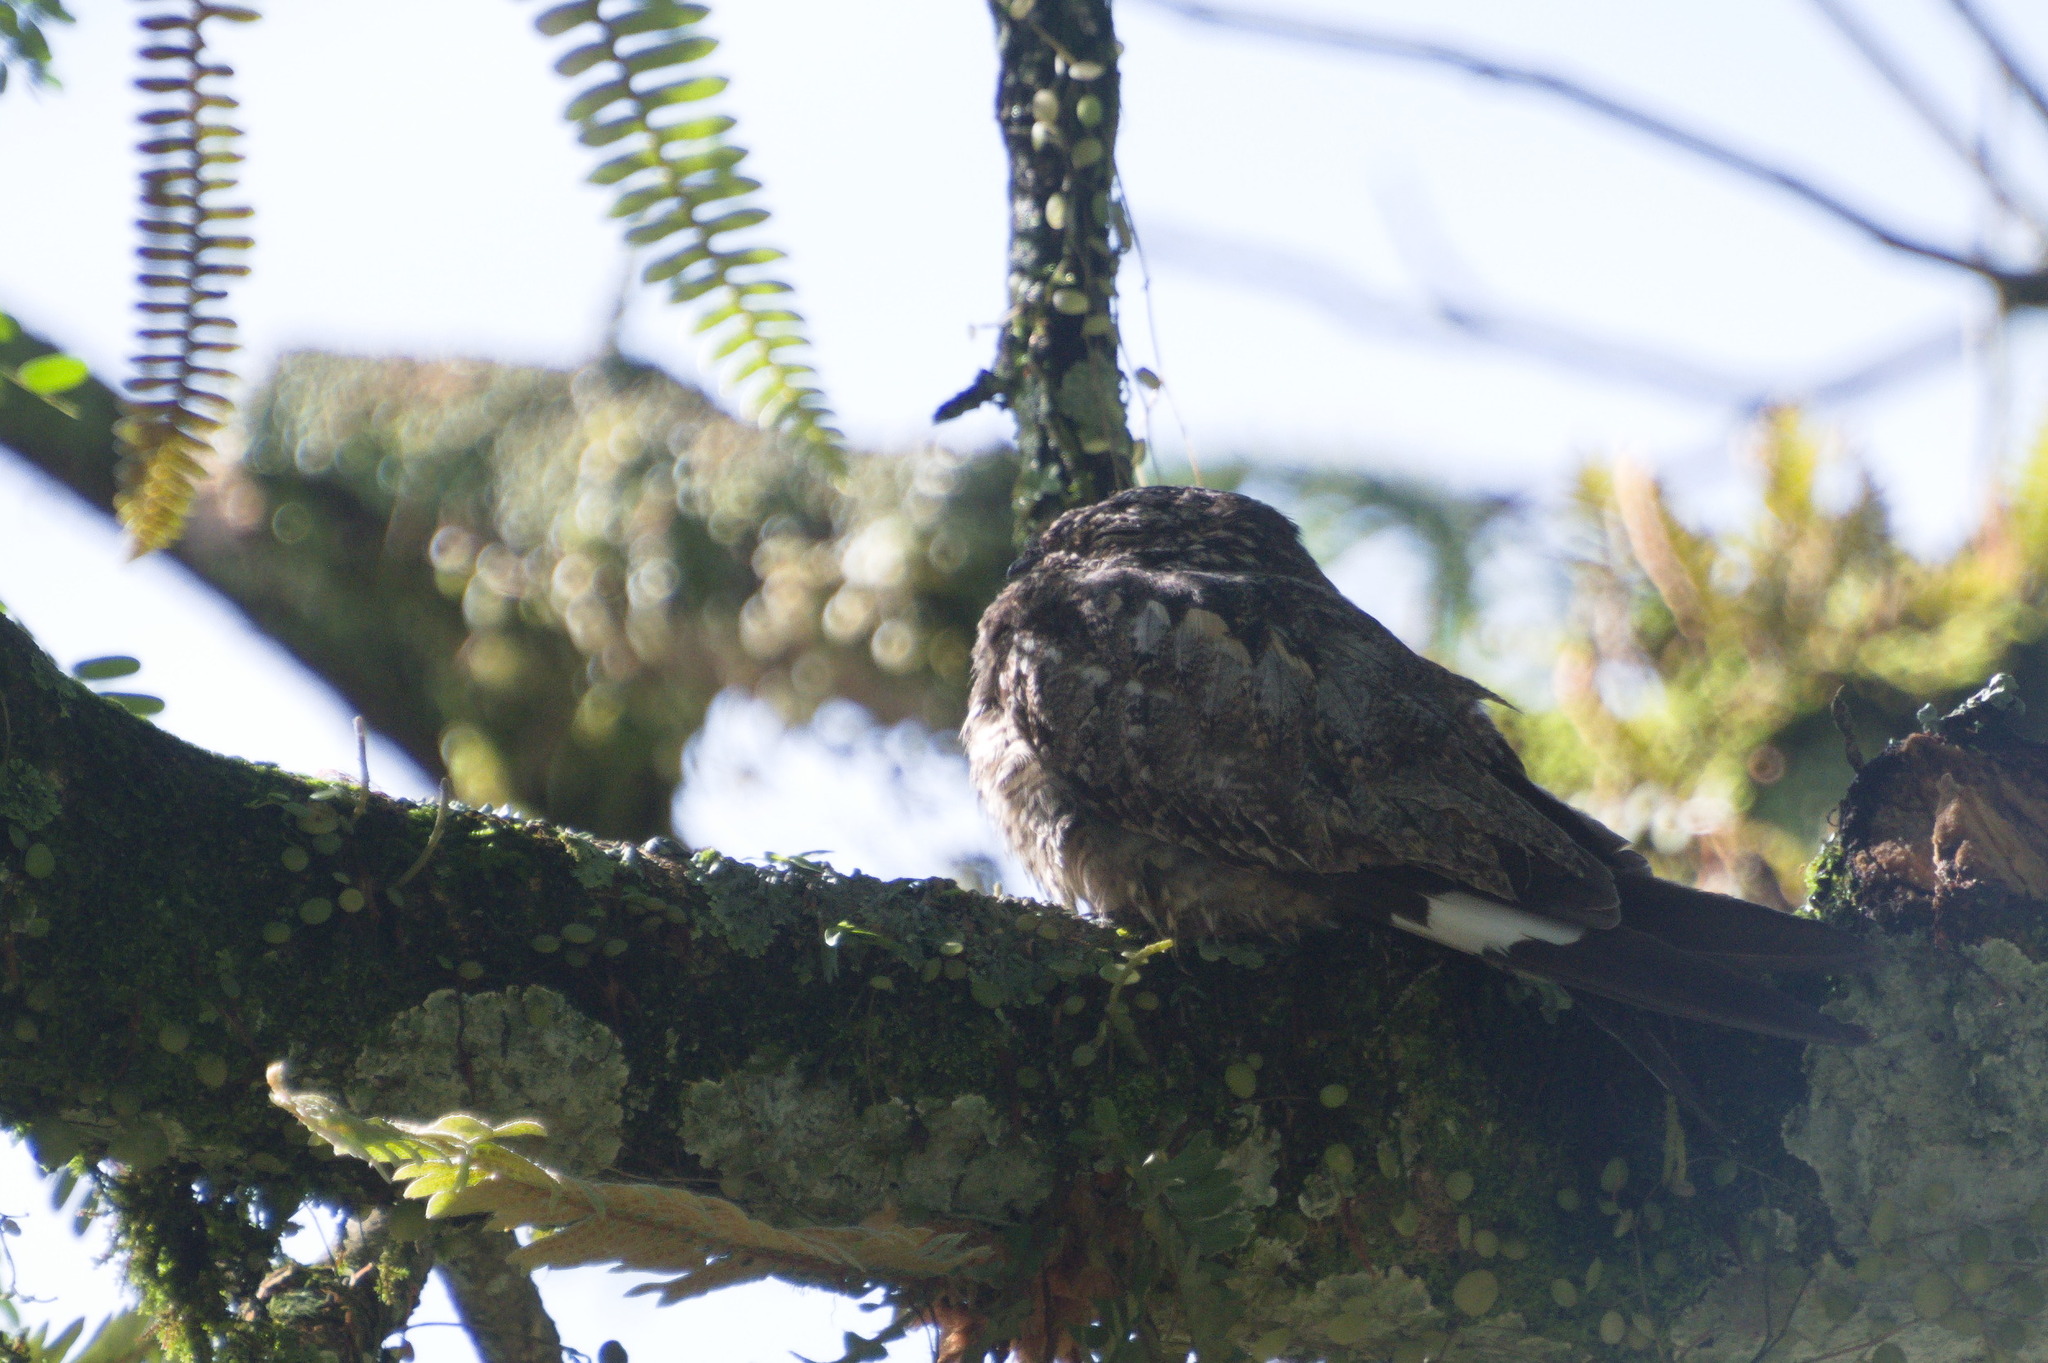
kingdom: Animalia
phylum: Chordata
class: Aves
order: Caprimulgiformes
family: Caprimulgidae
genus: Chordeiles
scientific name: Chordeiles acutipennis
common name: Lesser nighthawk
